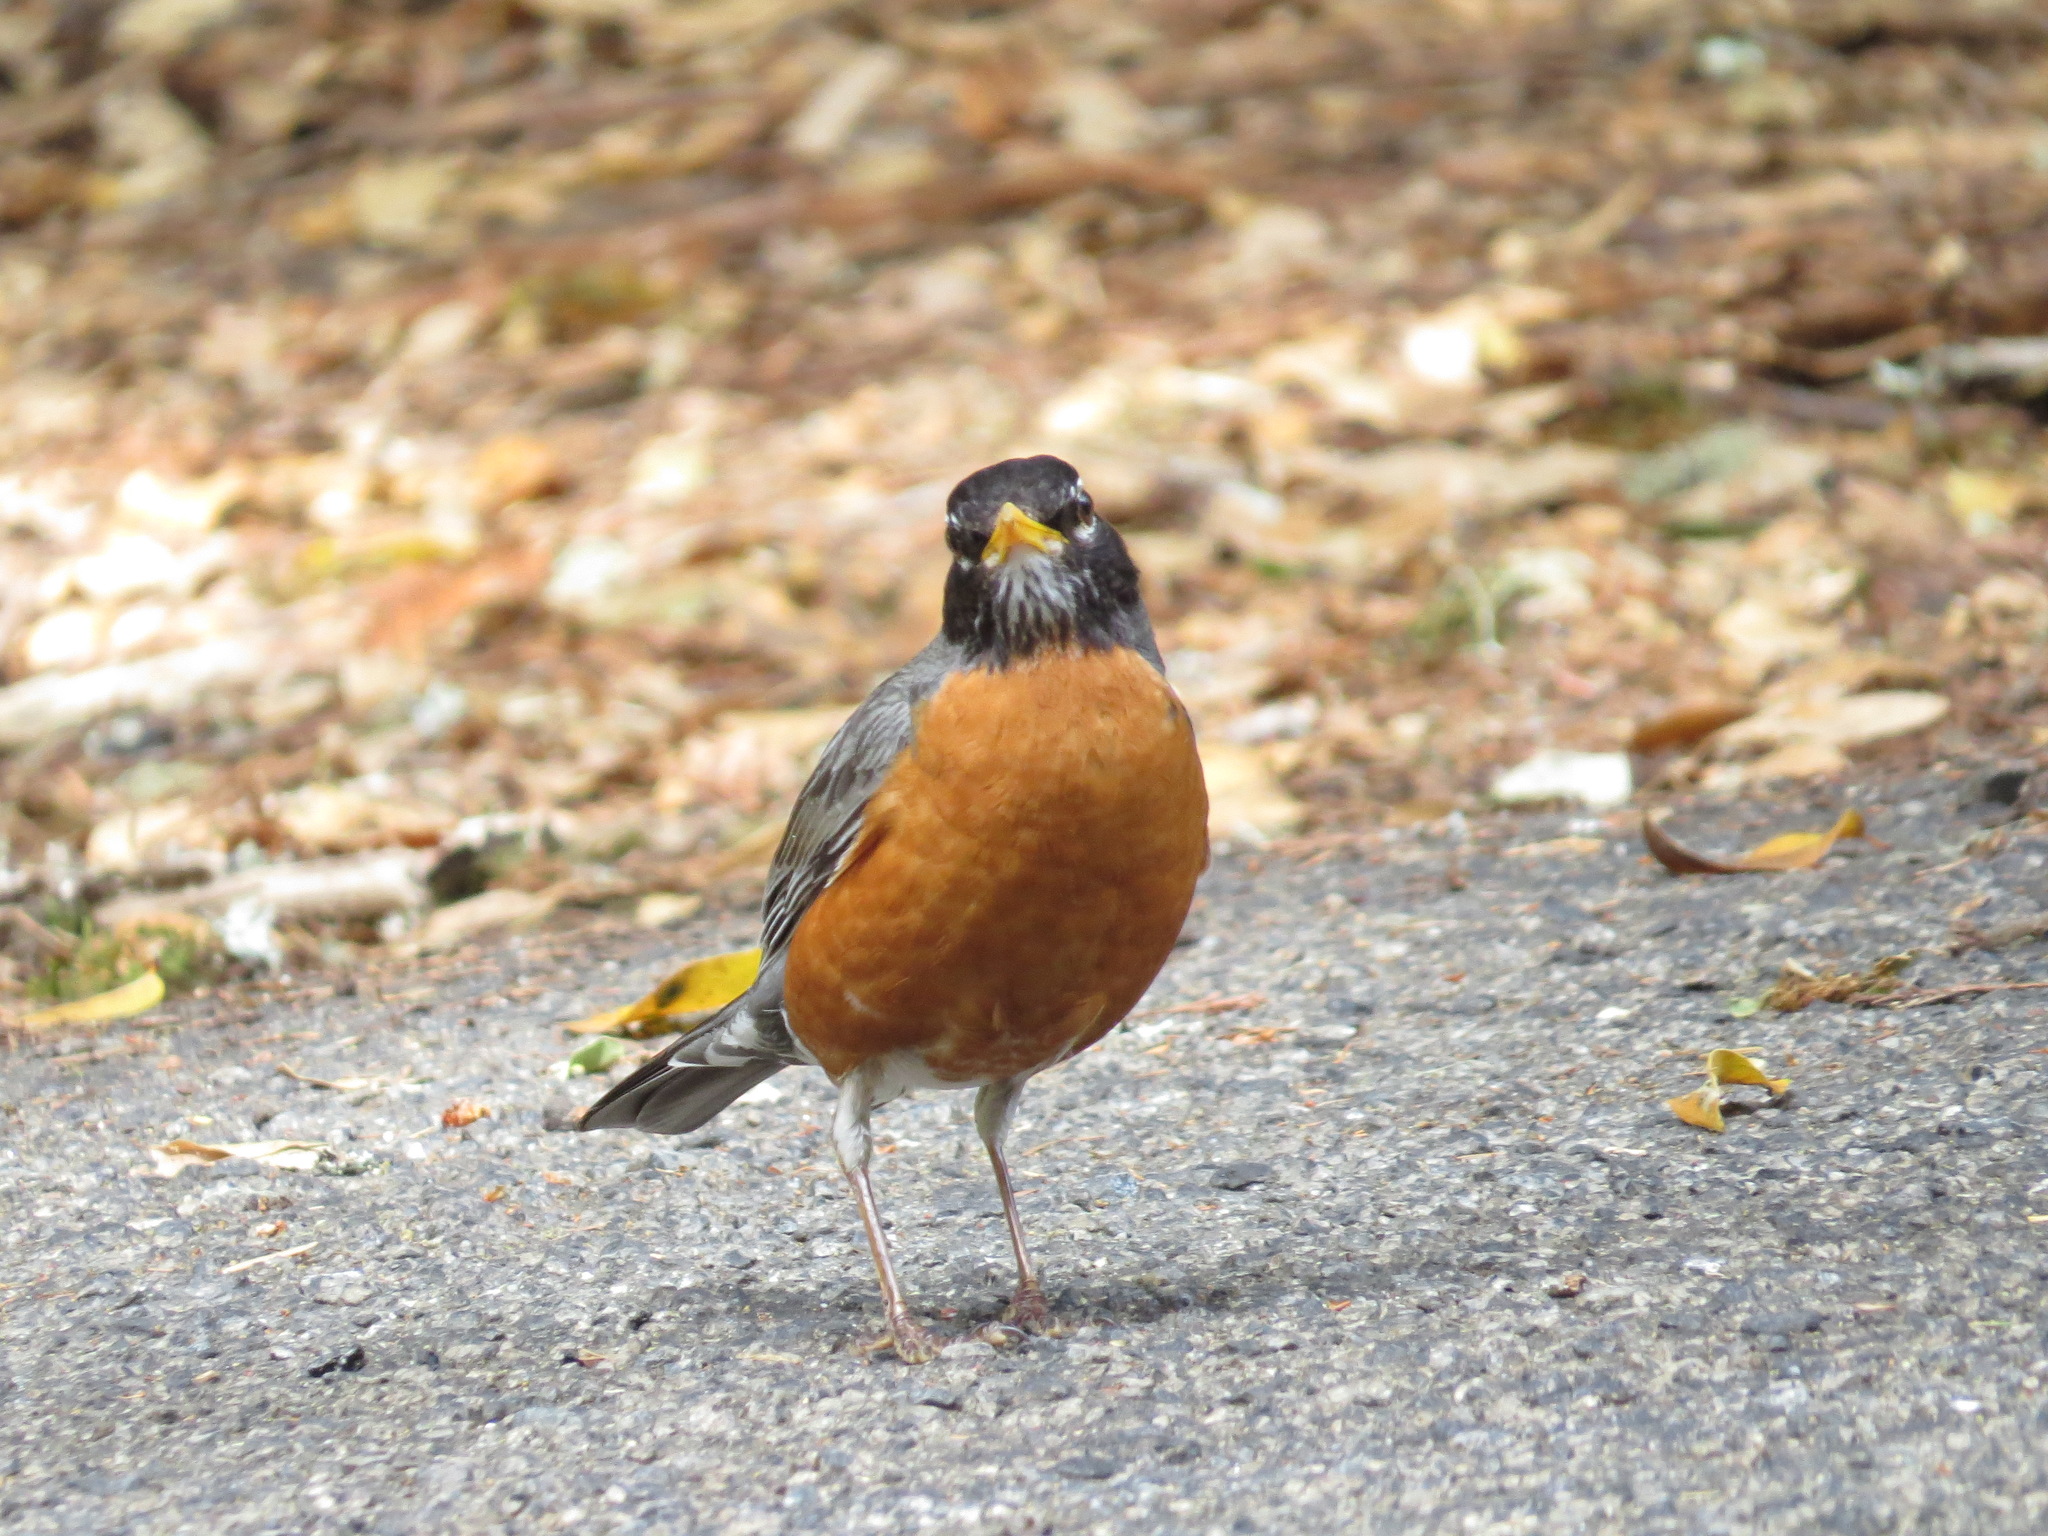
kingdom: Animalia
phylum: Chordata
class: Aves
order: Passeriformes
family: Turdidae
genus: Turdus
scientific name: Turdus migratorius
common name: American robin
